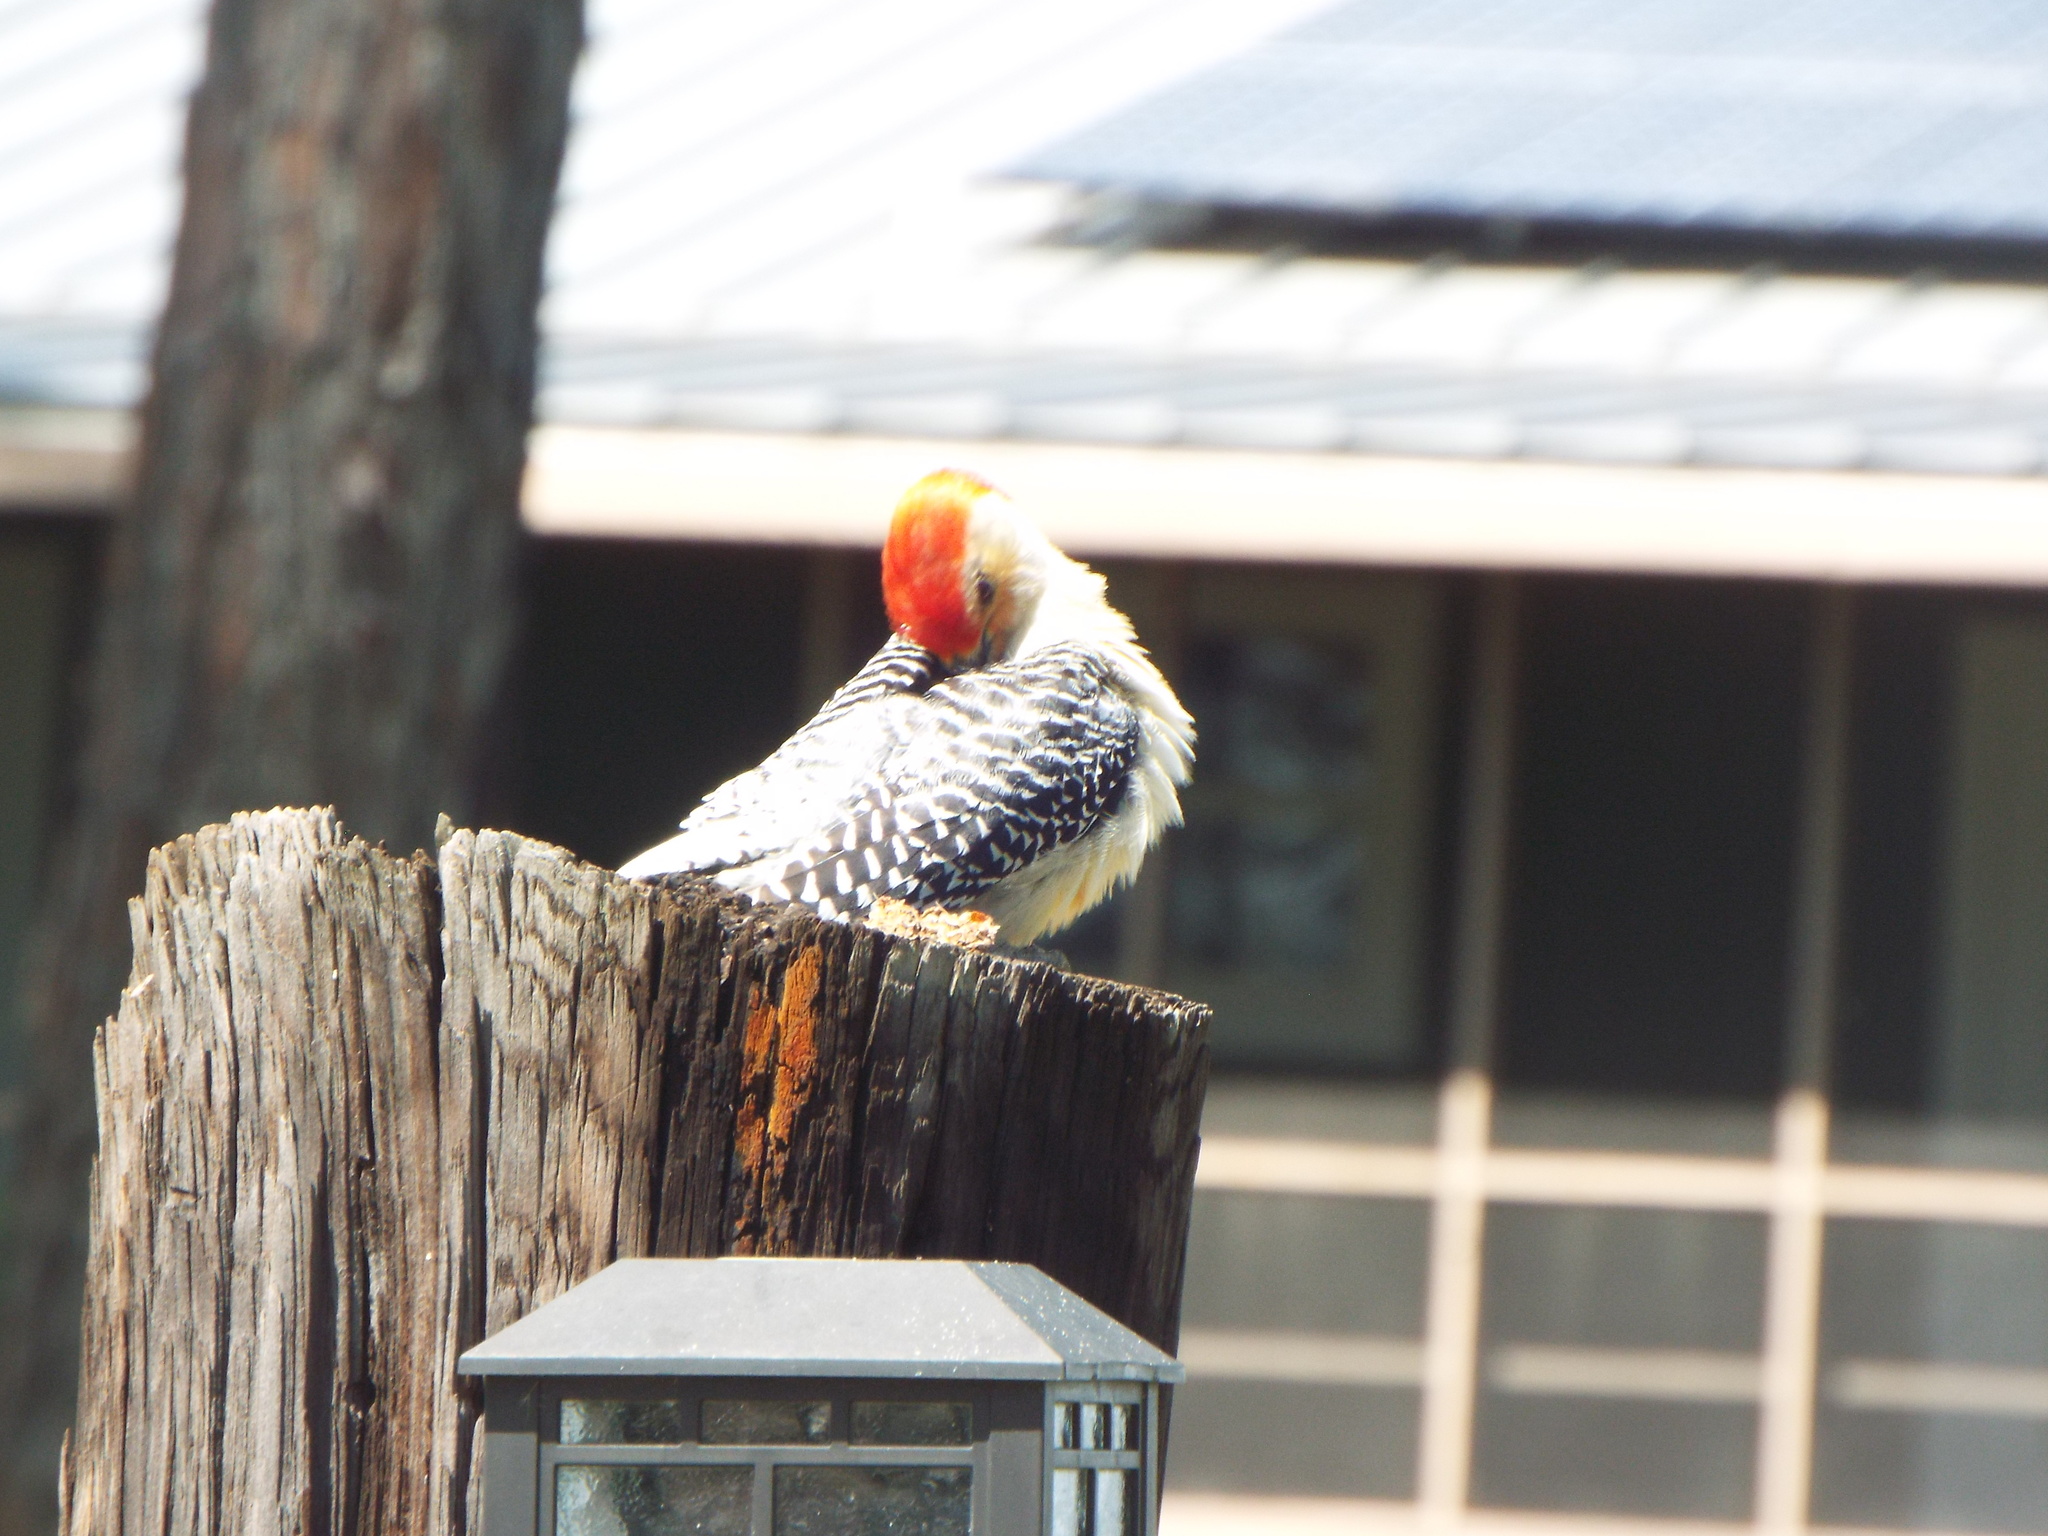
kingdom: Animalia
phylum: Chordata
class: Aves
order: Piciformes
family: Picidae
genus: Melanerpes
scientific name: Melanerpes carolinus
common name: Red-bellied woodpecker
